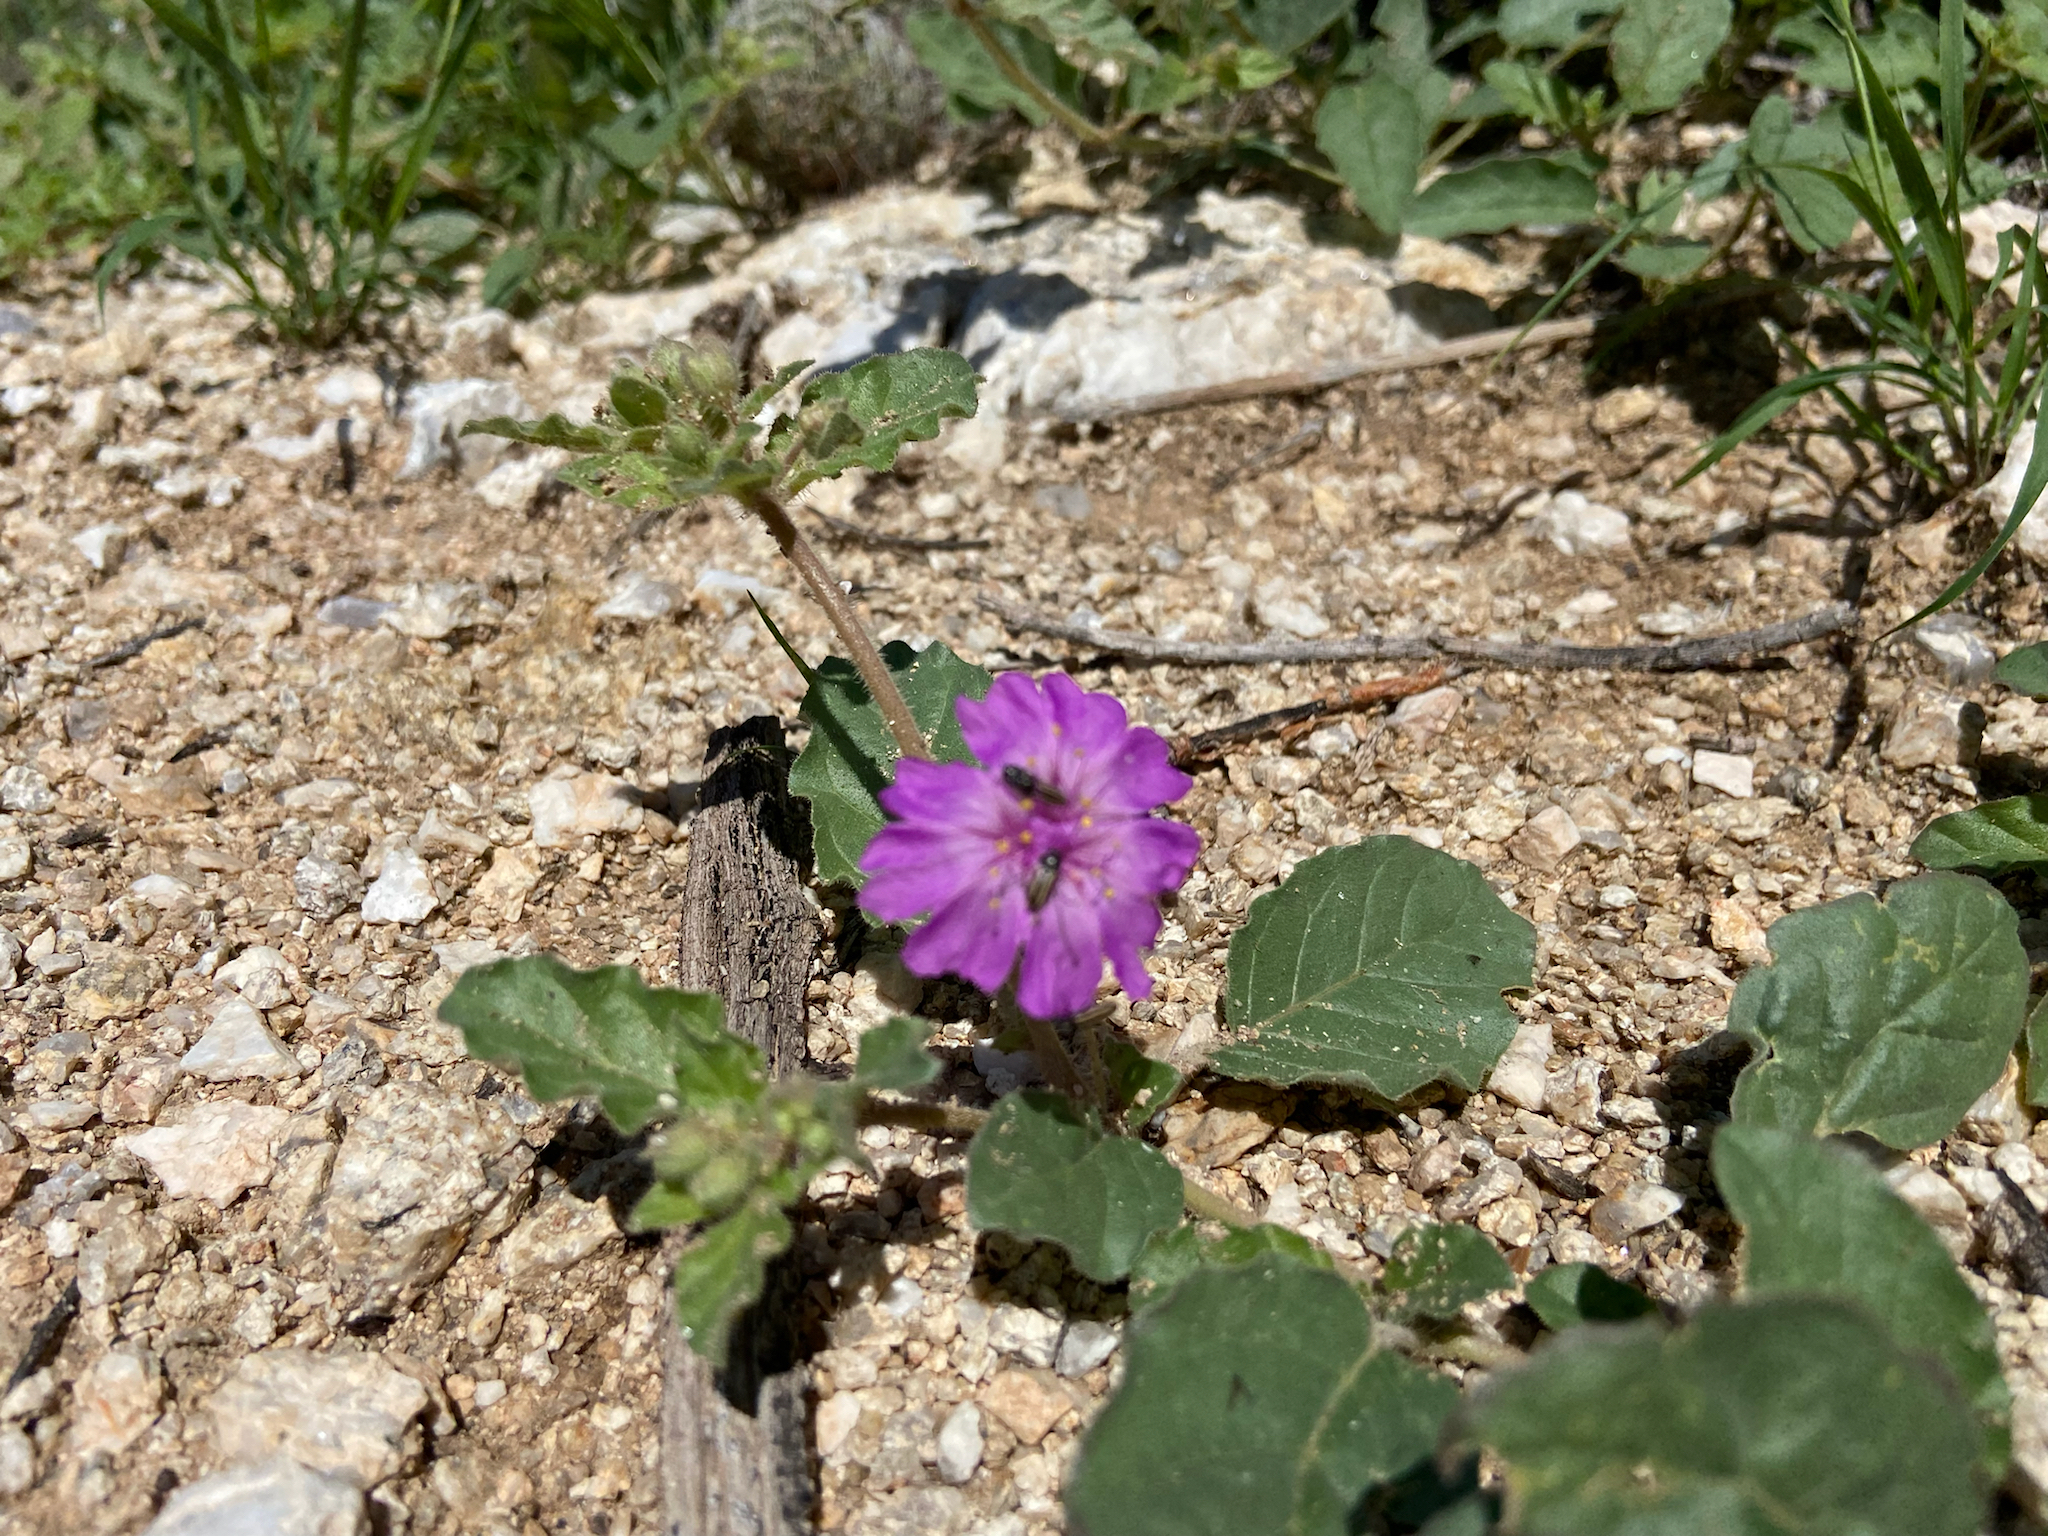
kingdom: Plantae
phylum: Tracheophyta
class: Magnoliopsida
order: Caryophyllales
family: Nyctaginaceae
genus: Allionia
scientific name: Allionia incarnata
